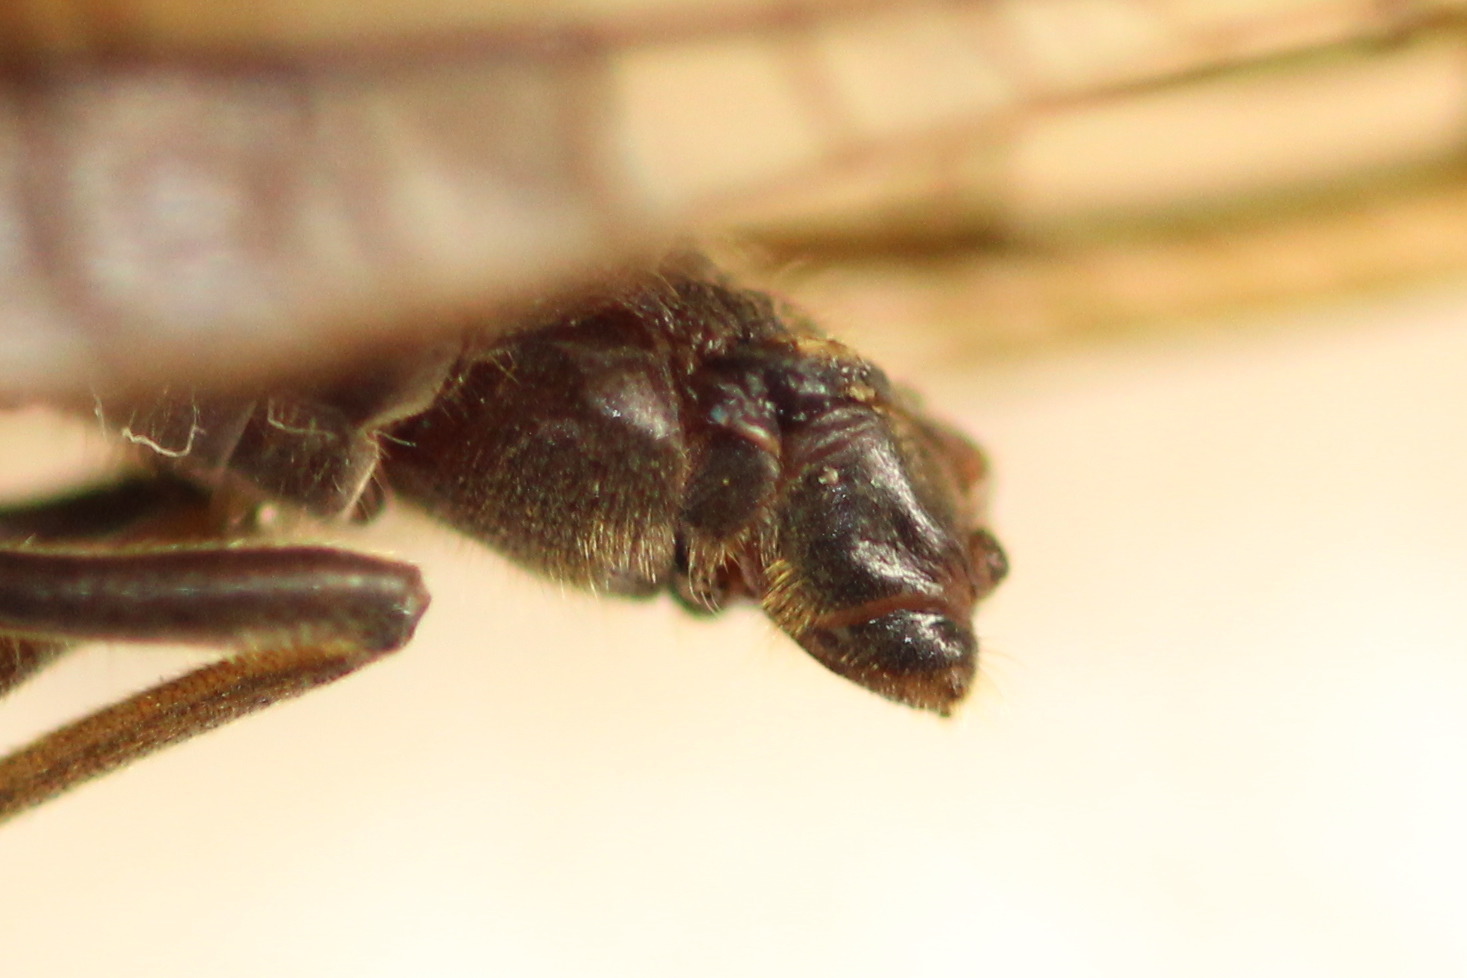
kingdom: Animalia
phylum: Arthropoda
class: Insecta
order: Megaloptera
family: Sialidae
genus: Sialis
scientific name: Sialis lutaria
